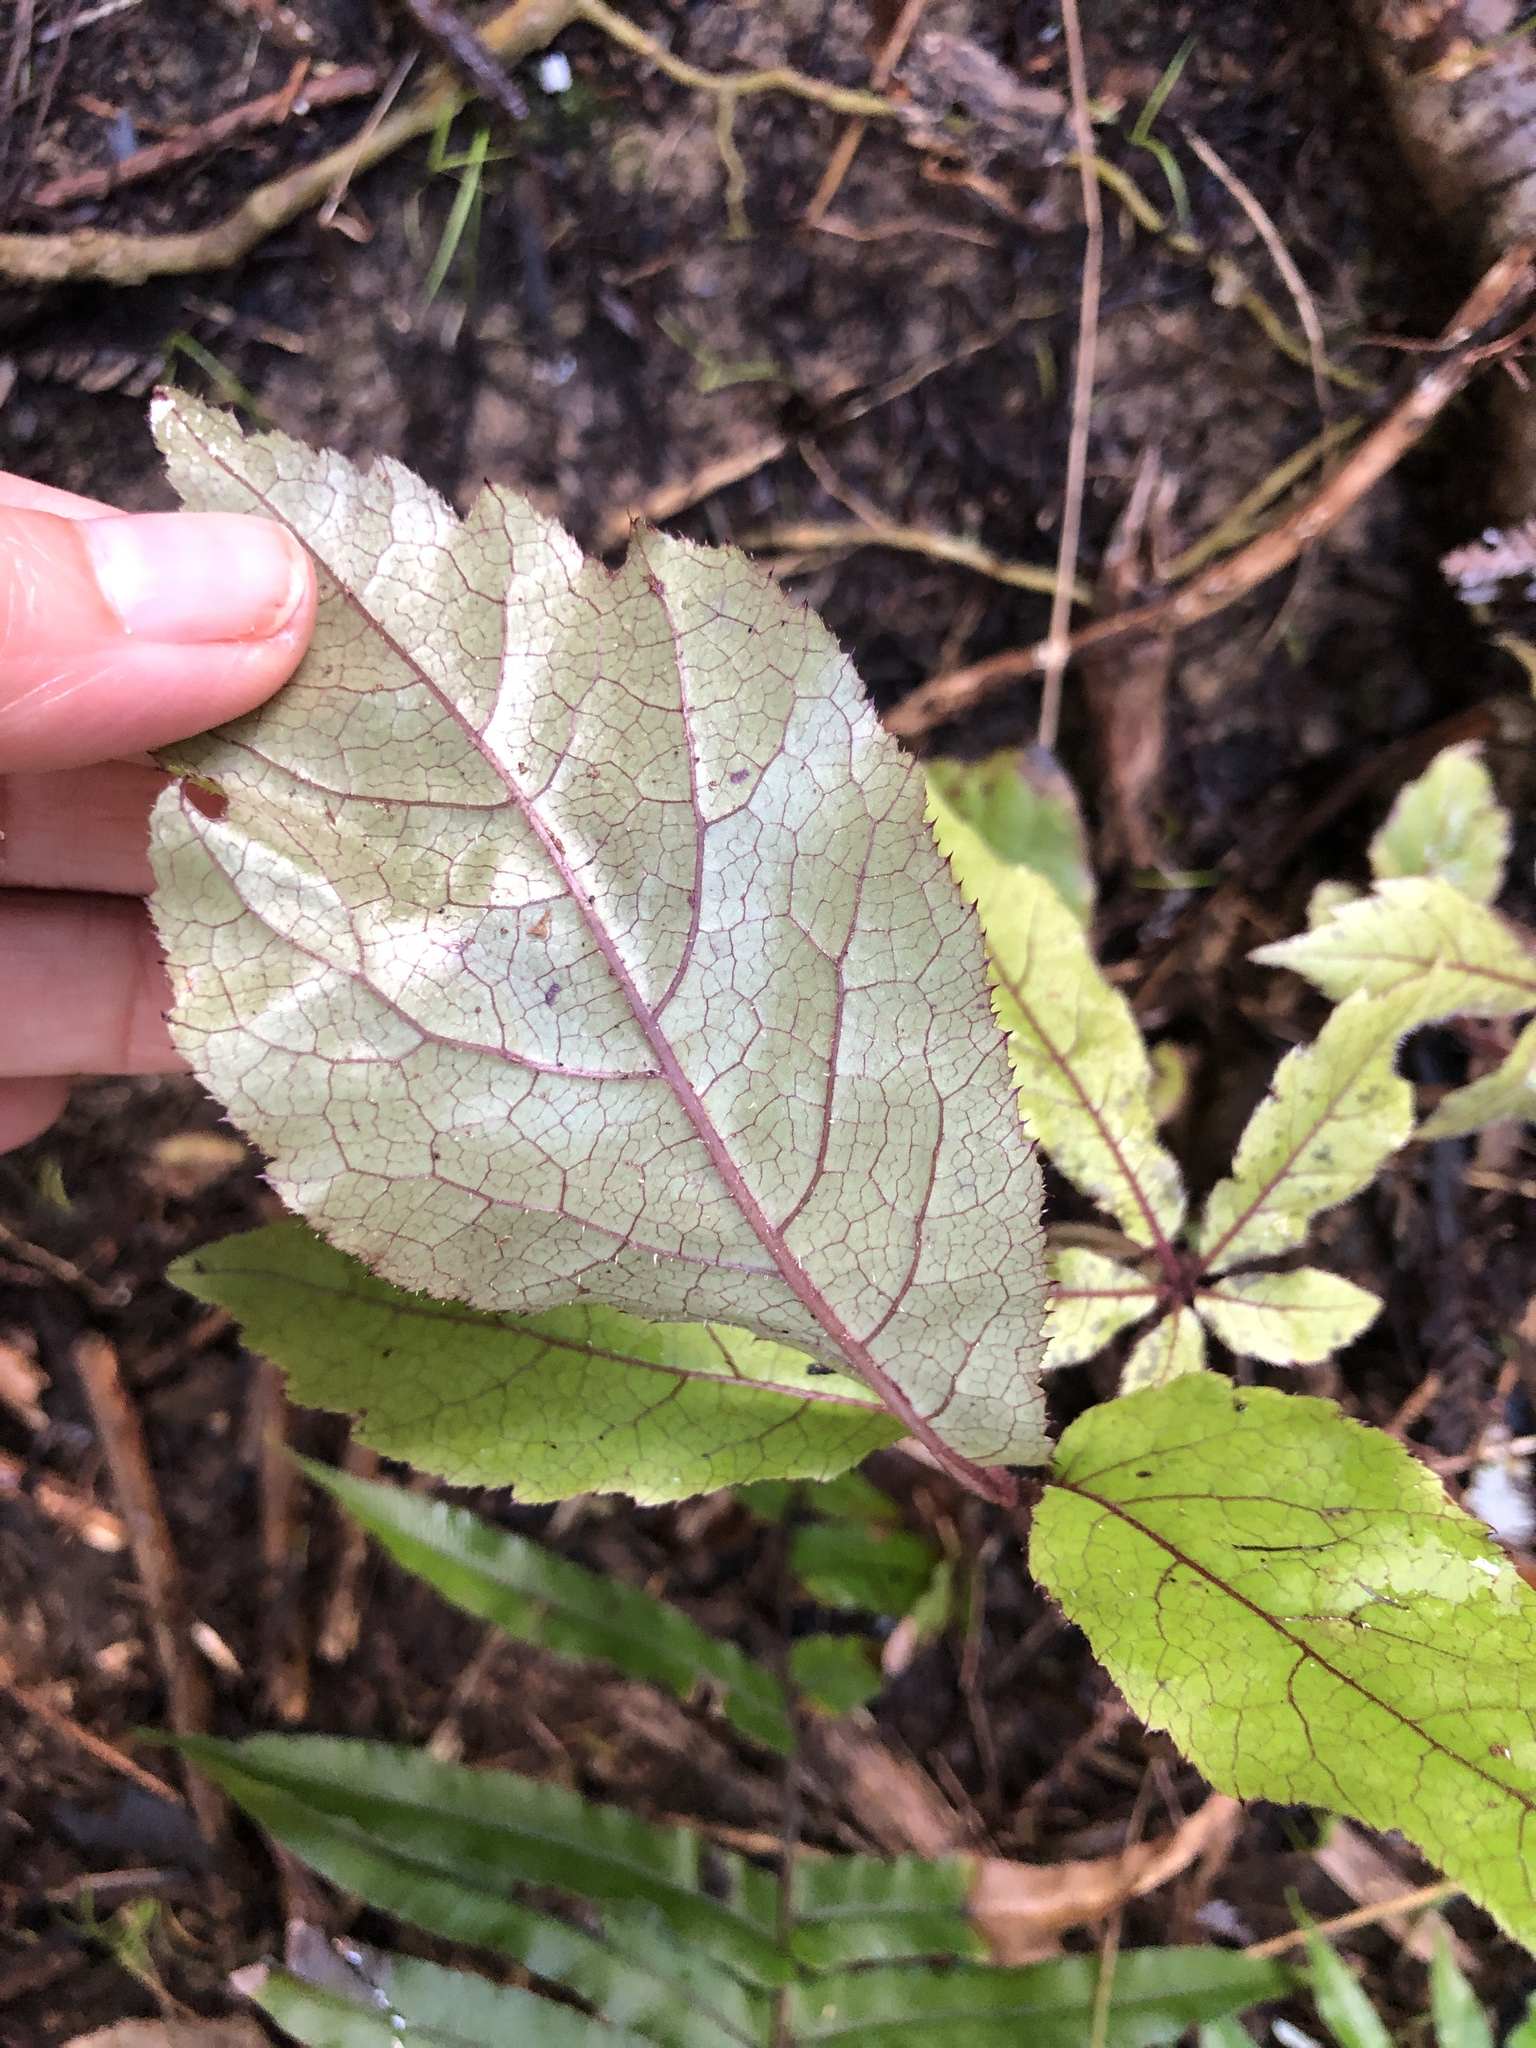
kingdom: Plantae
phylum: Tracheophyta
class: Magnoliopsida
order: Apiales
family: Araliaceae
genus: Schefflera
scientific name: Schefflera digitata
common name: Pate
